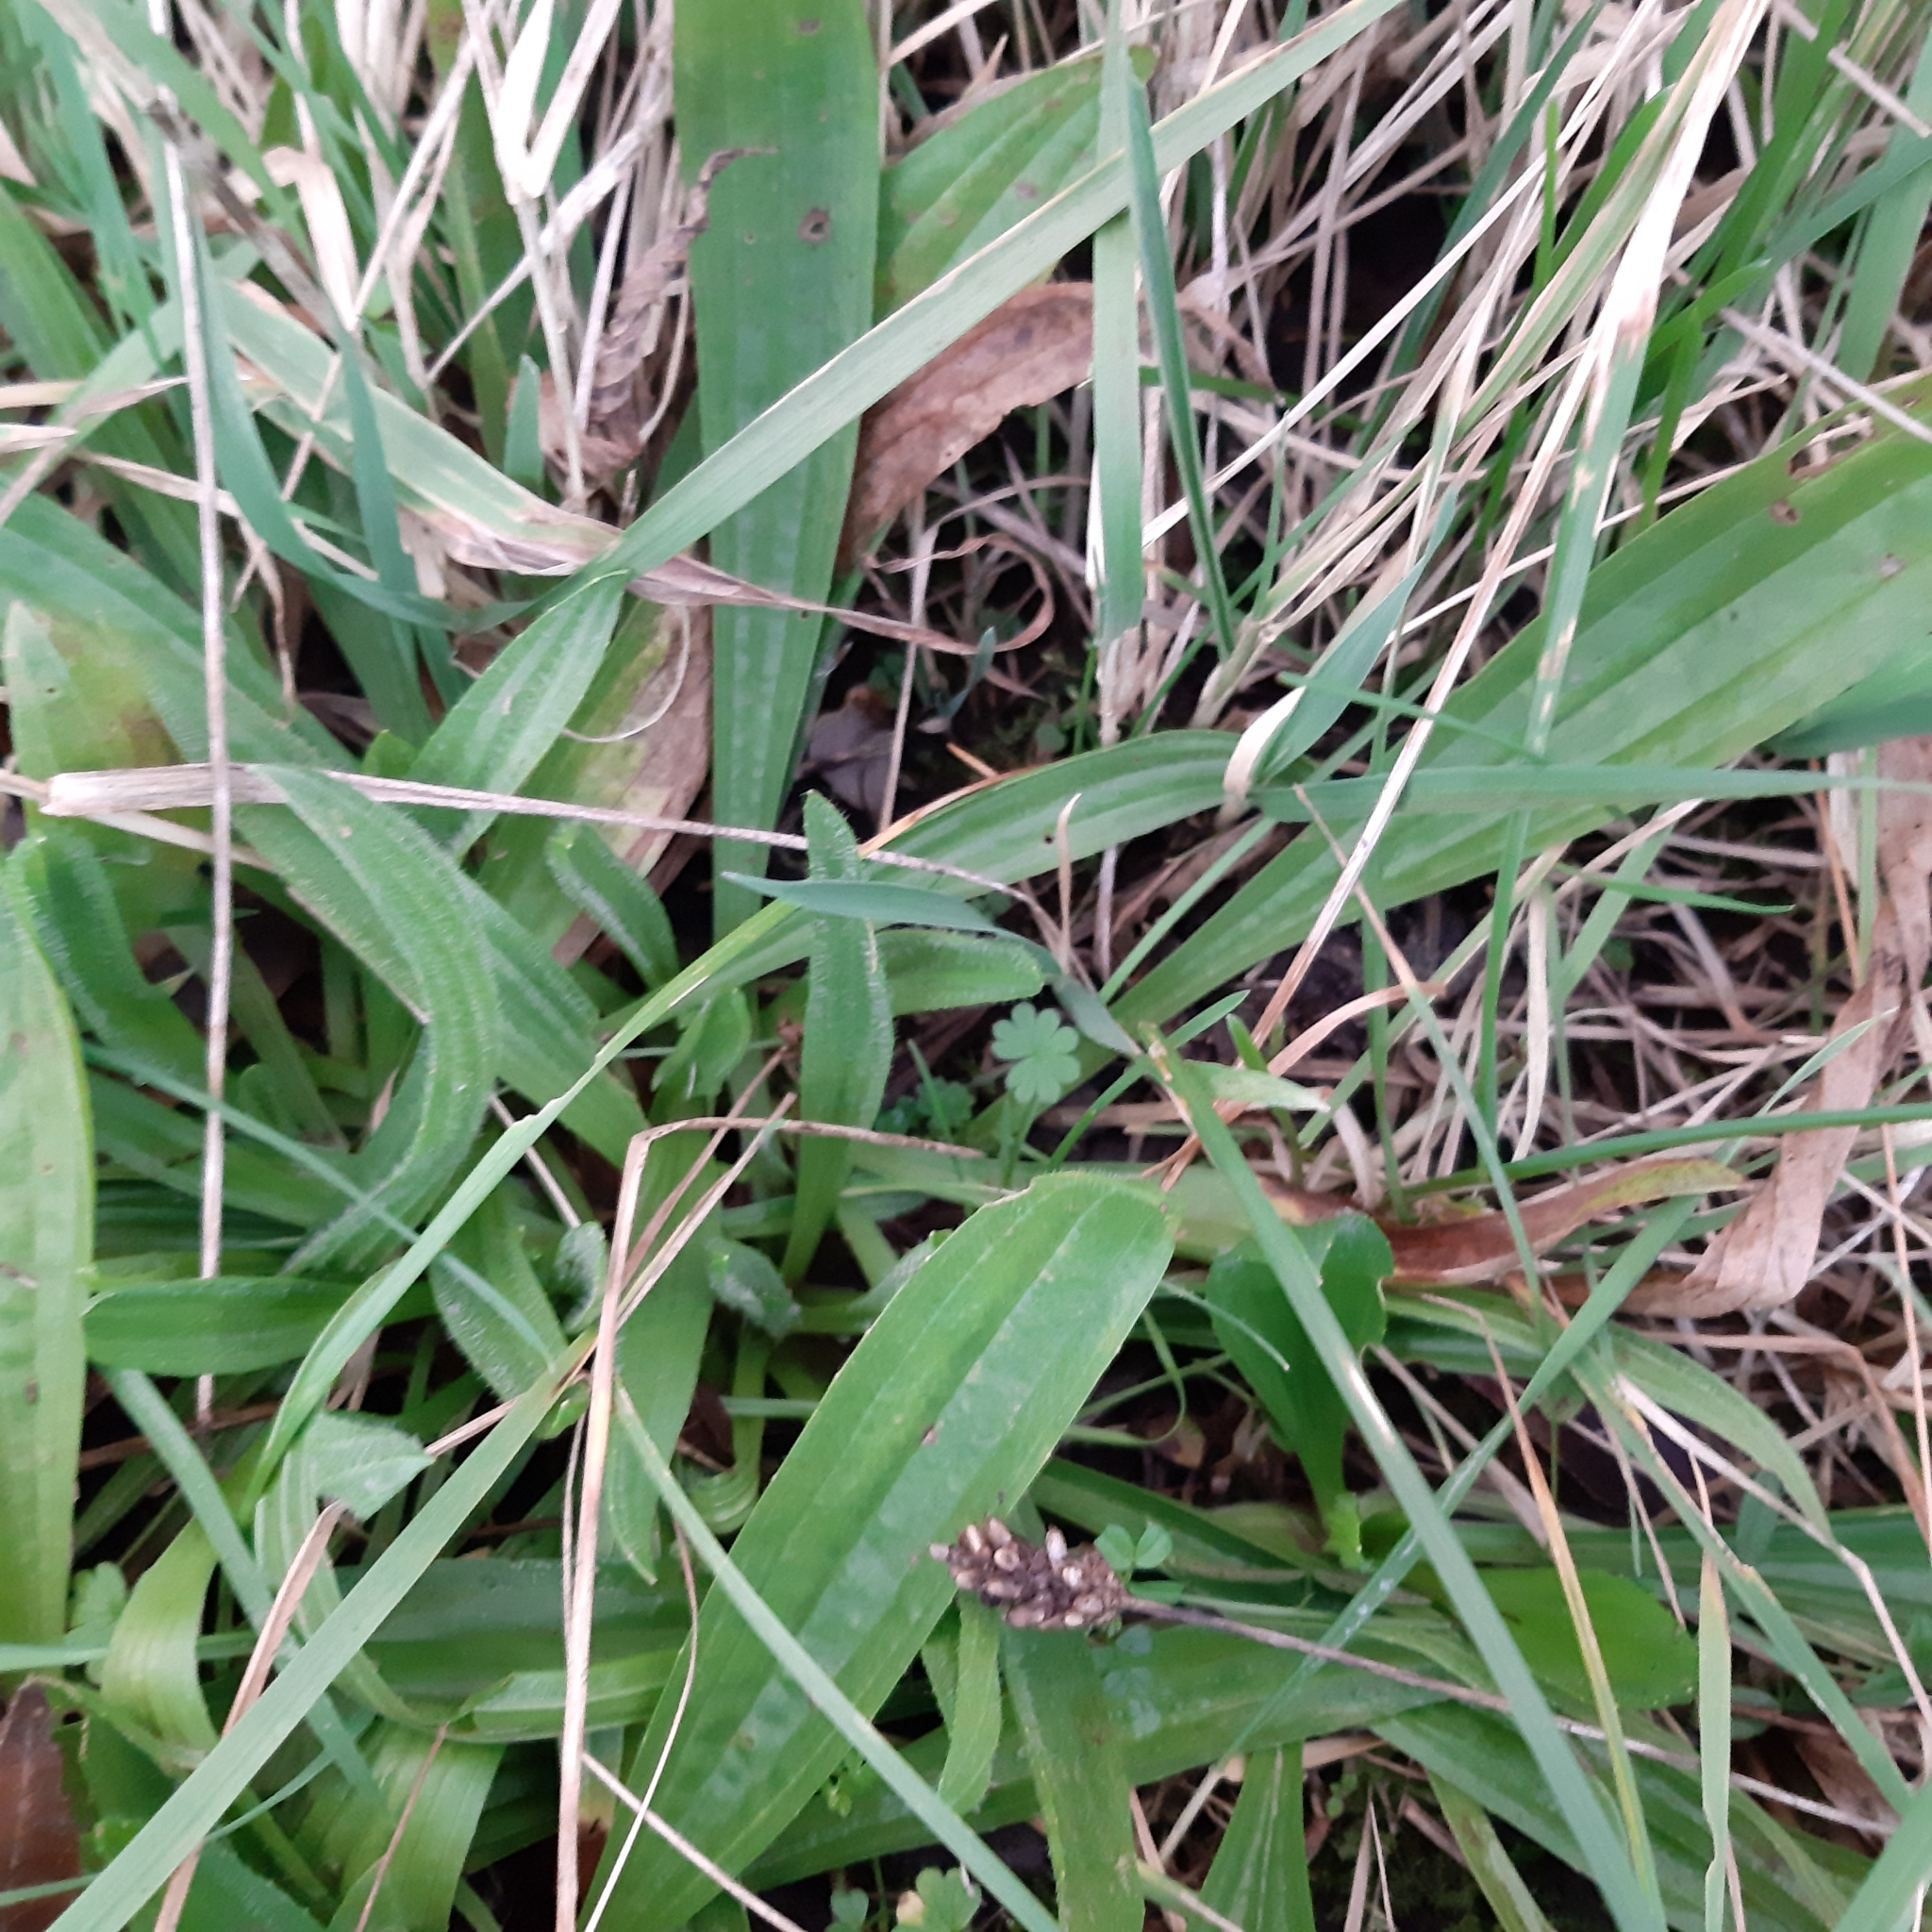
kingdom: Plantae
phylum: Tracheophyta
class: Magnoliopsida
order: Lamiales
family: Plantaginaceae
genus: Plantago
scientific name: Plantago lanceolata
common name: Ribwort plantain
